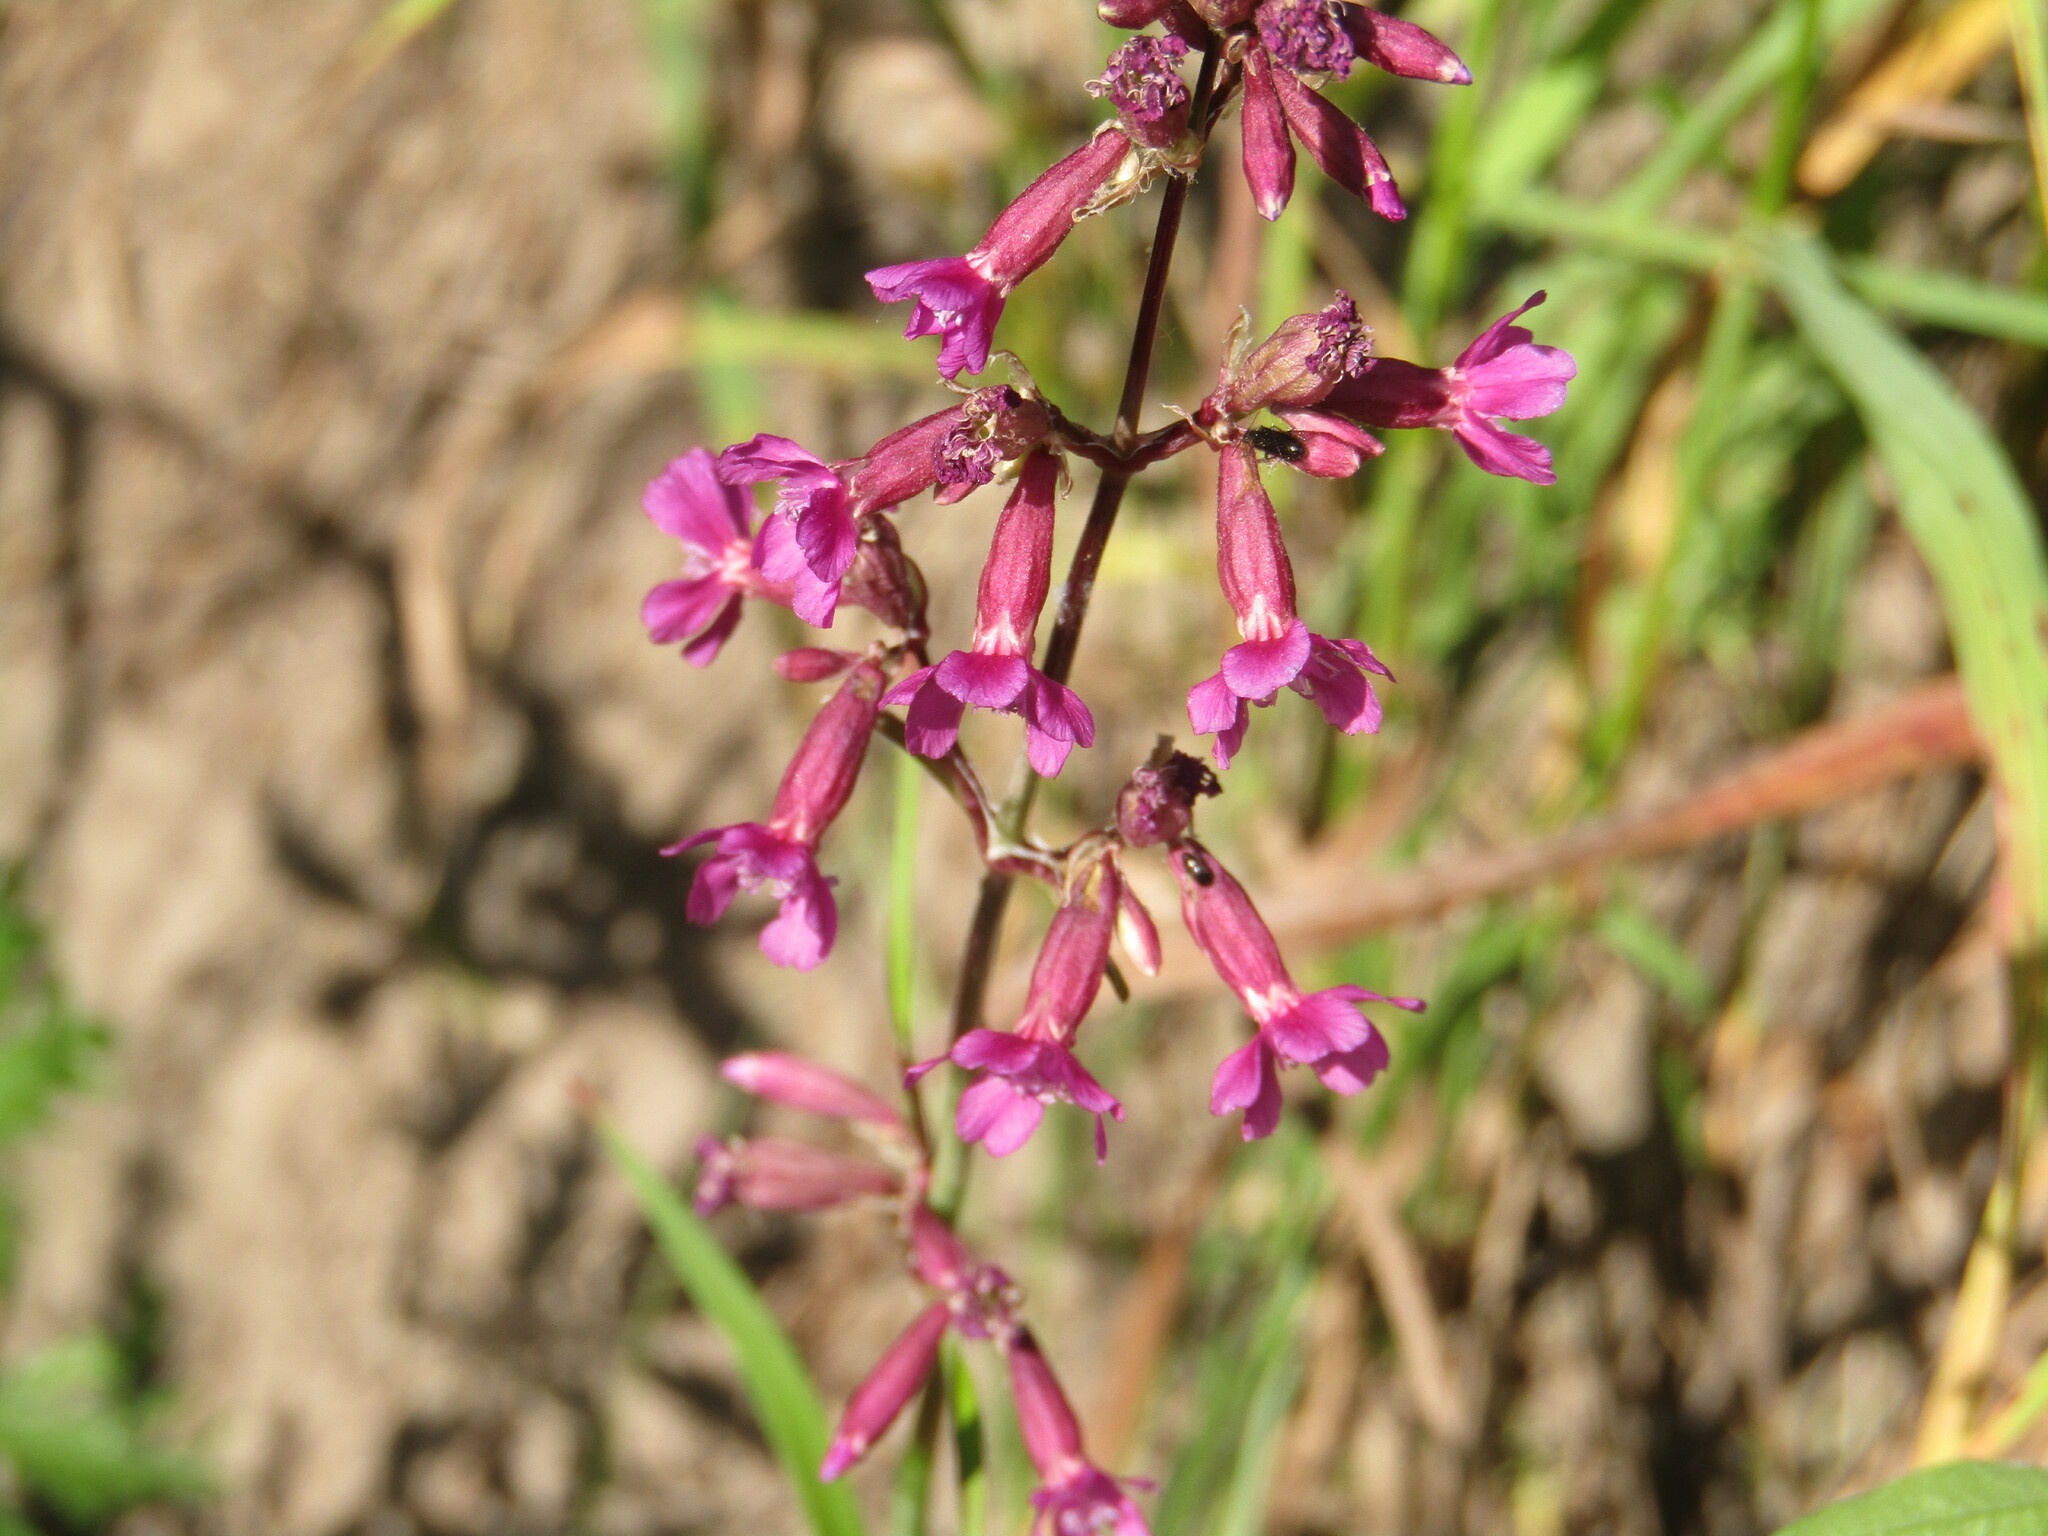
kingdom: Plantae
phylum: Tracheophyta
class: Magnoliopsida
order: Caryophyllales
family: Caryophyllaceae
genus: Viscaria
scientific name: Viscaria vulgaris
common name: Clammy campion
